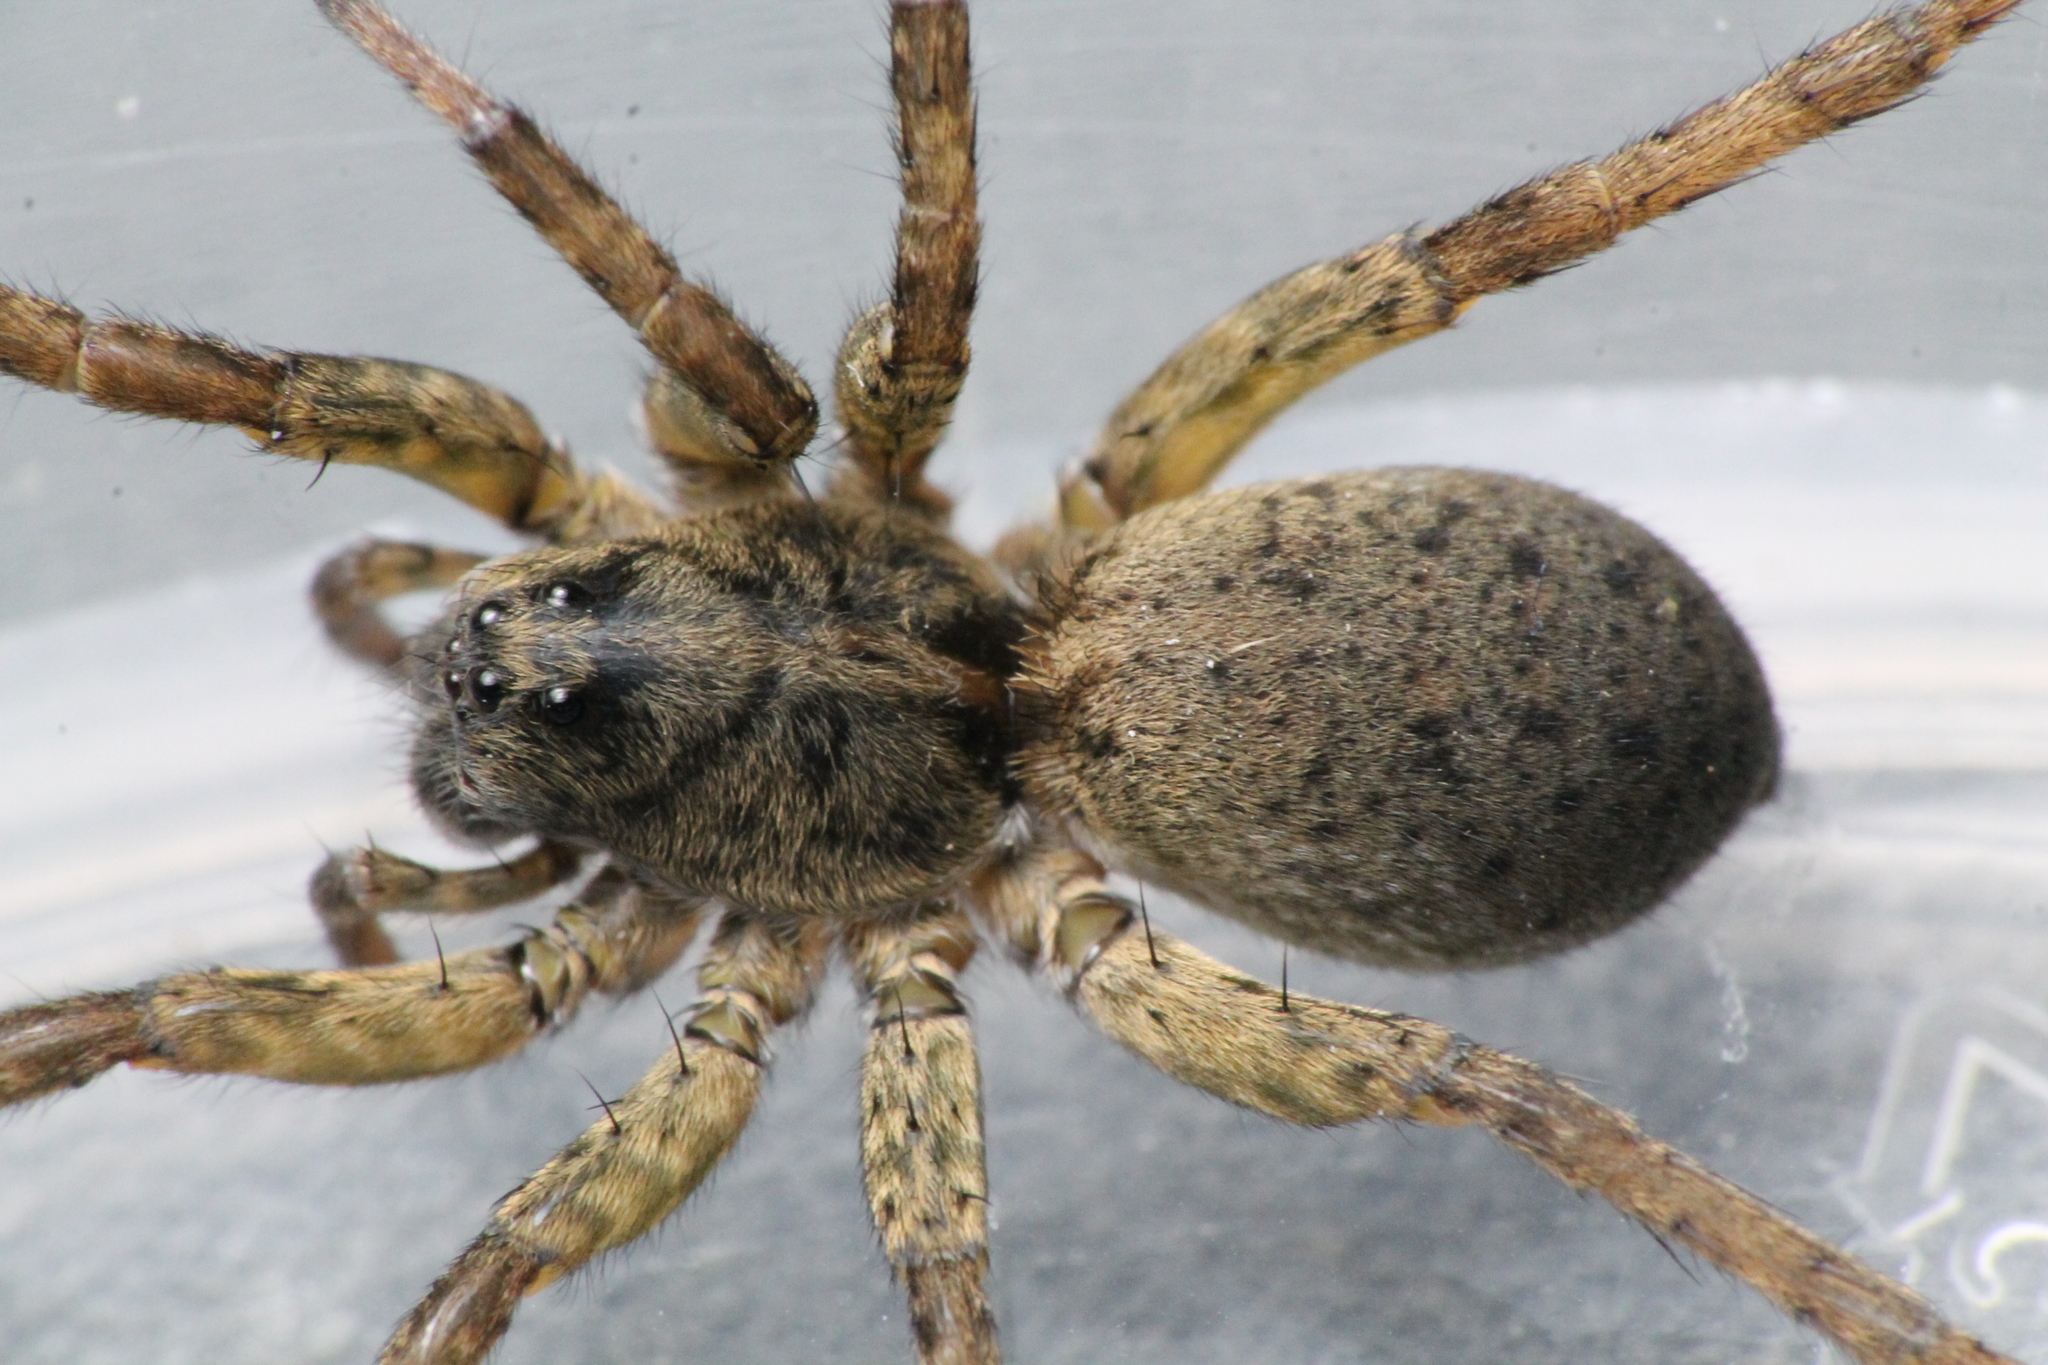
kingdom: Animalia
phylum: Arthropoda
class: Arachnida
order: Araneae
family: Lycosidae
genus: Venatrix
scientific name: Venatrix konei
